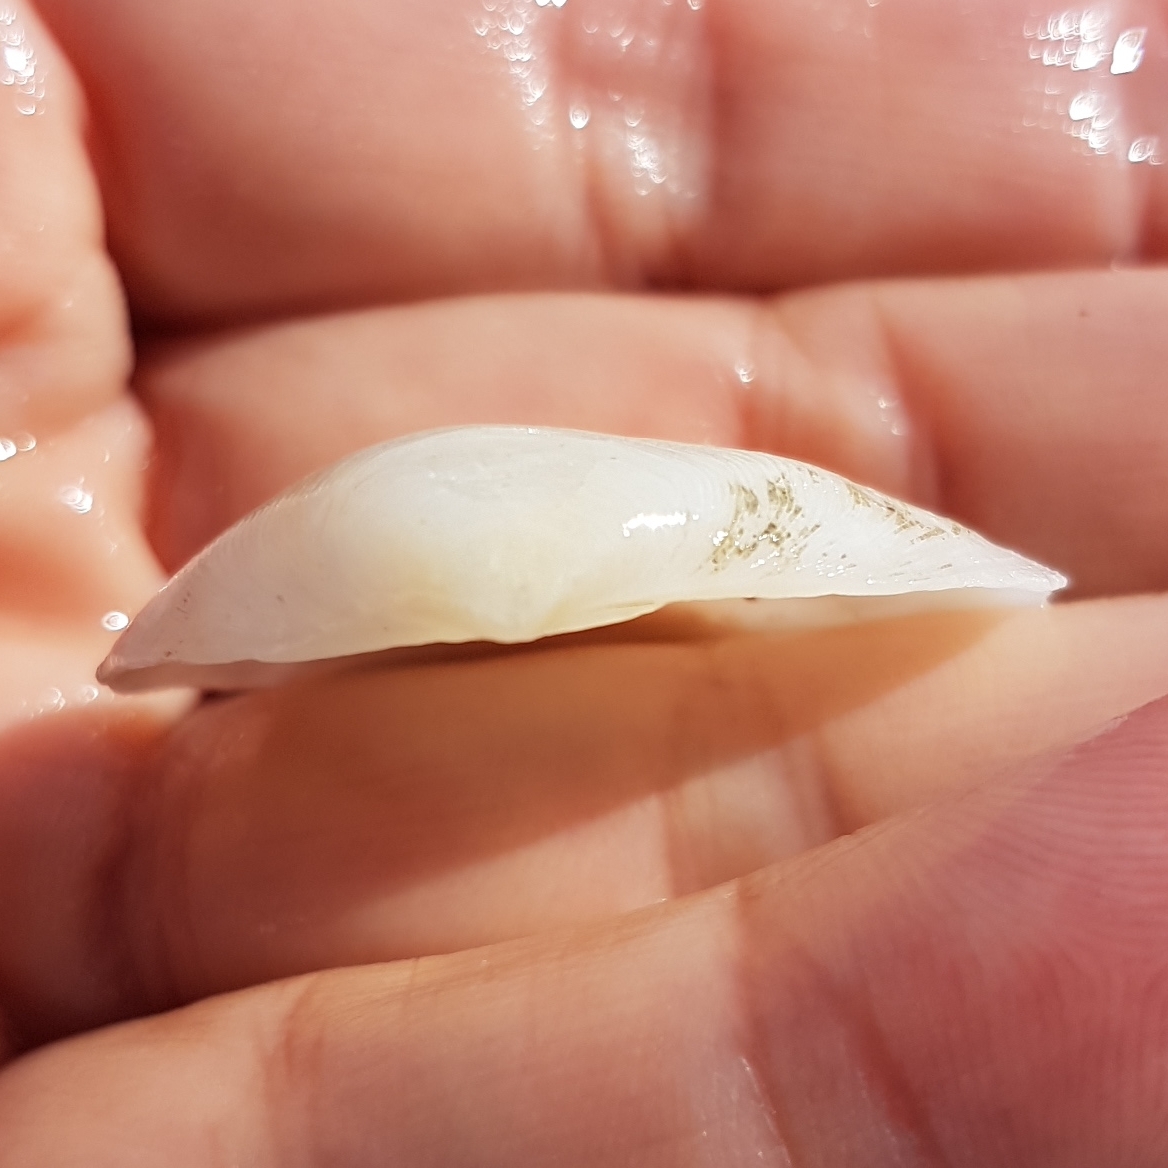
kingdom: Animalia
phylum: Mollusca
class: Bivalvia
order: Cardiida
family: Tellinidae
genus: Gastrana
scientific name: Gastrana fragilis
